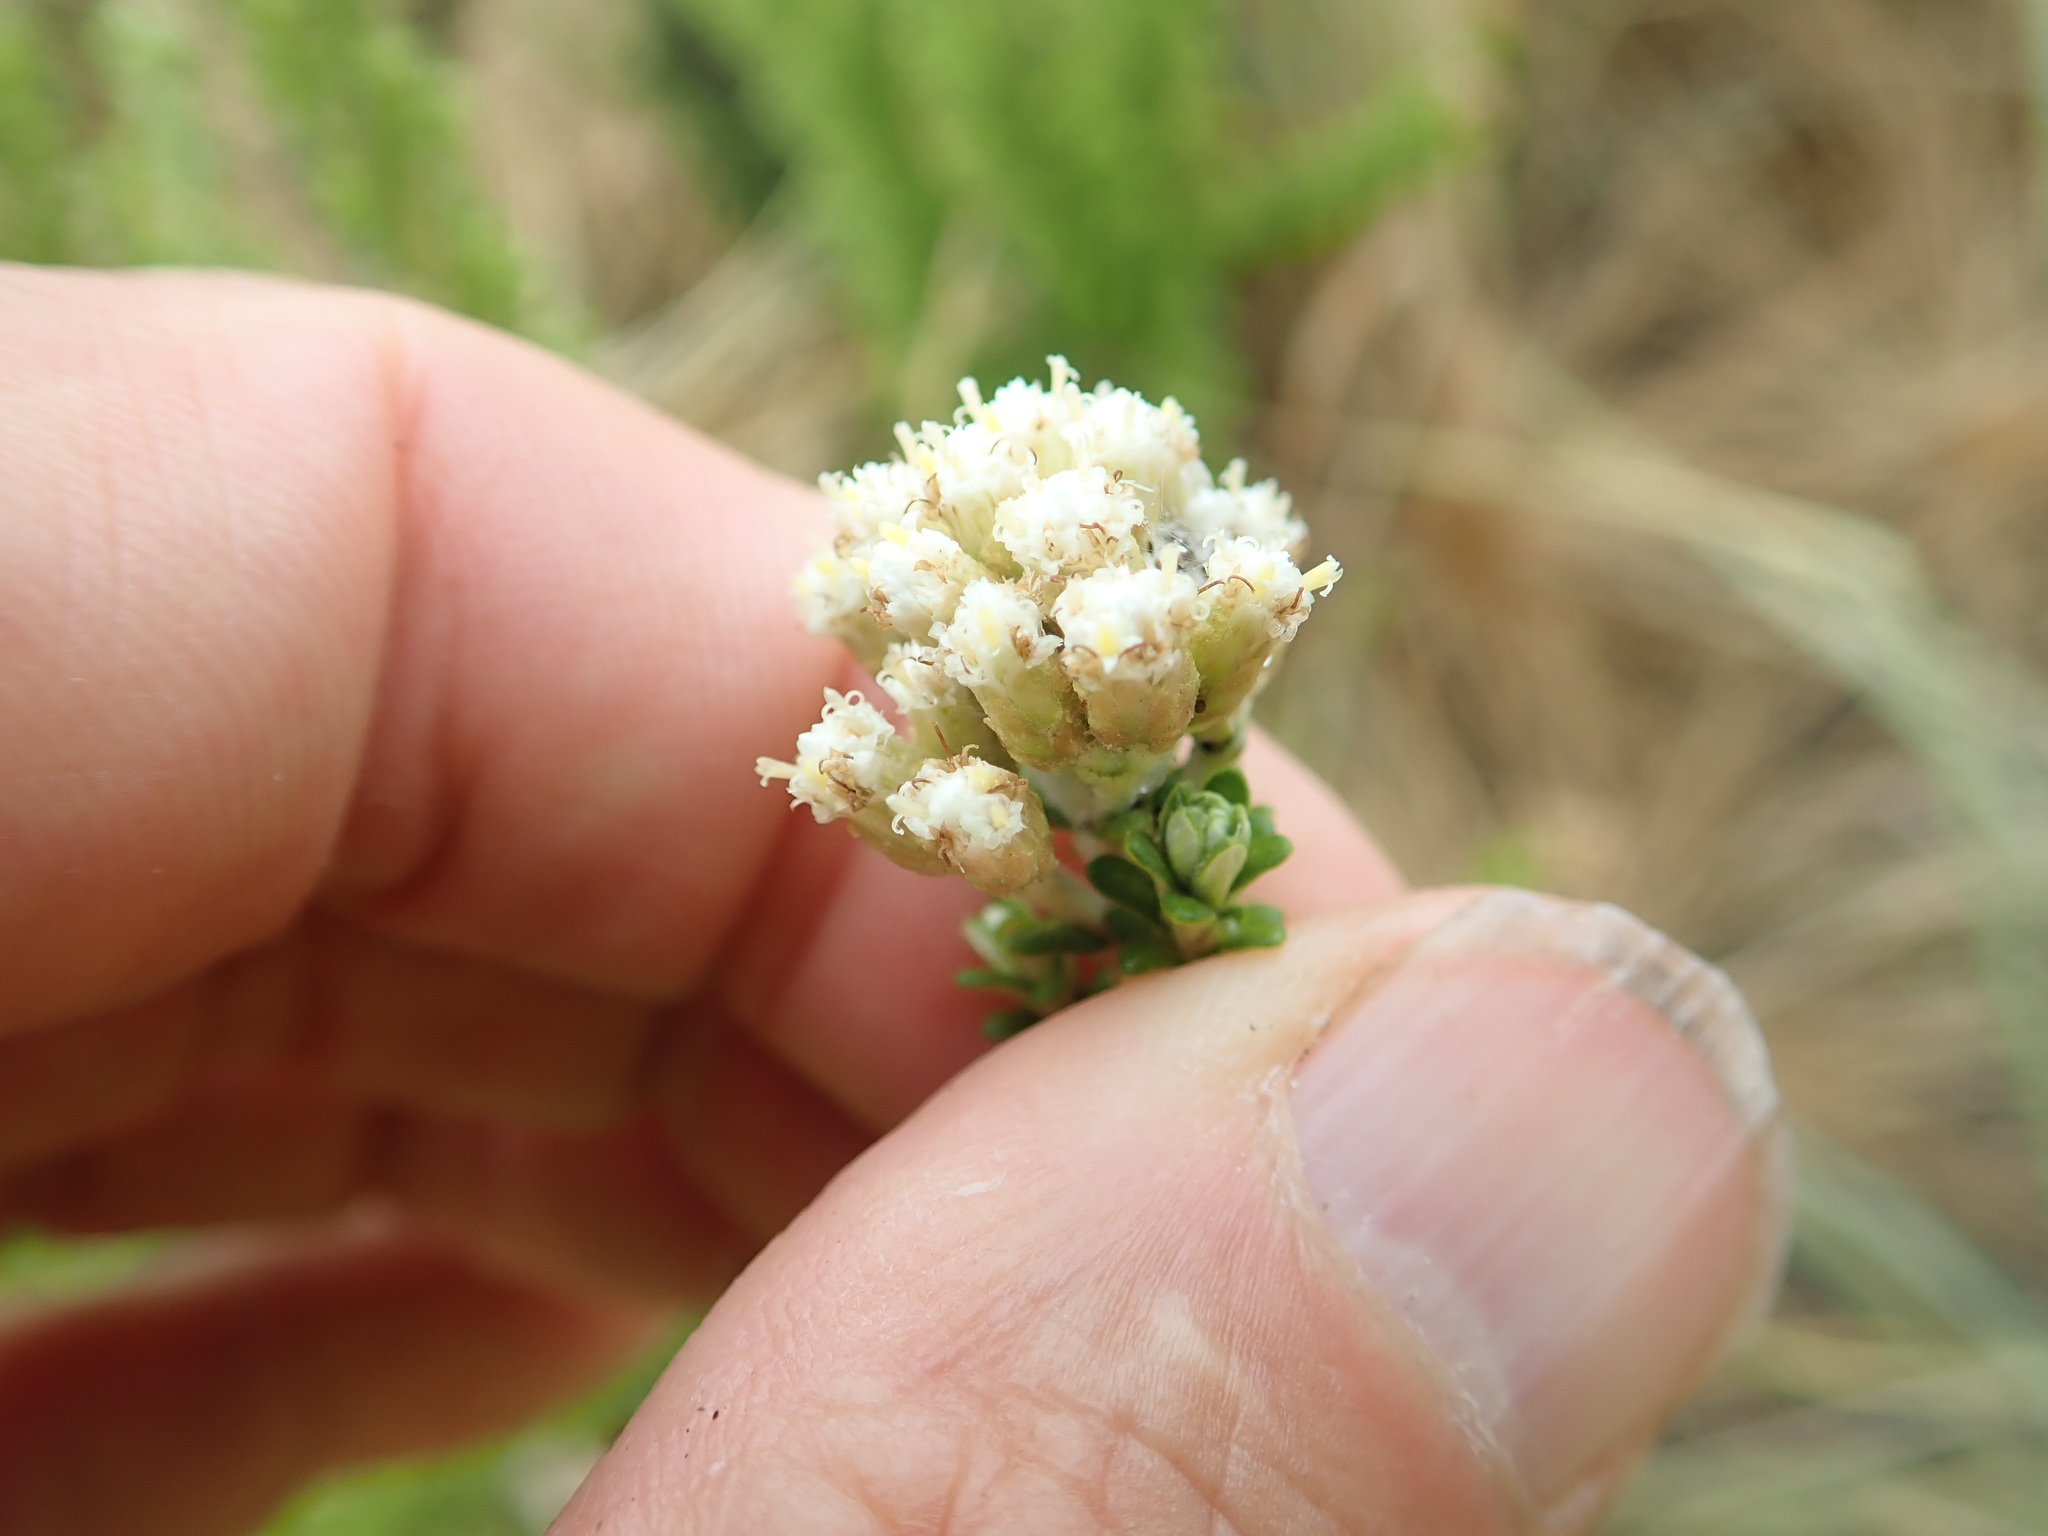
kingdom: Plantae
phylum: Tracheophyta
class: Magnoliopsida
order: Asterales
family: Asteraceae
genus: Ozothamnus
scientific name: Ozothamnus leptophyllus
